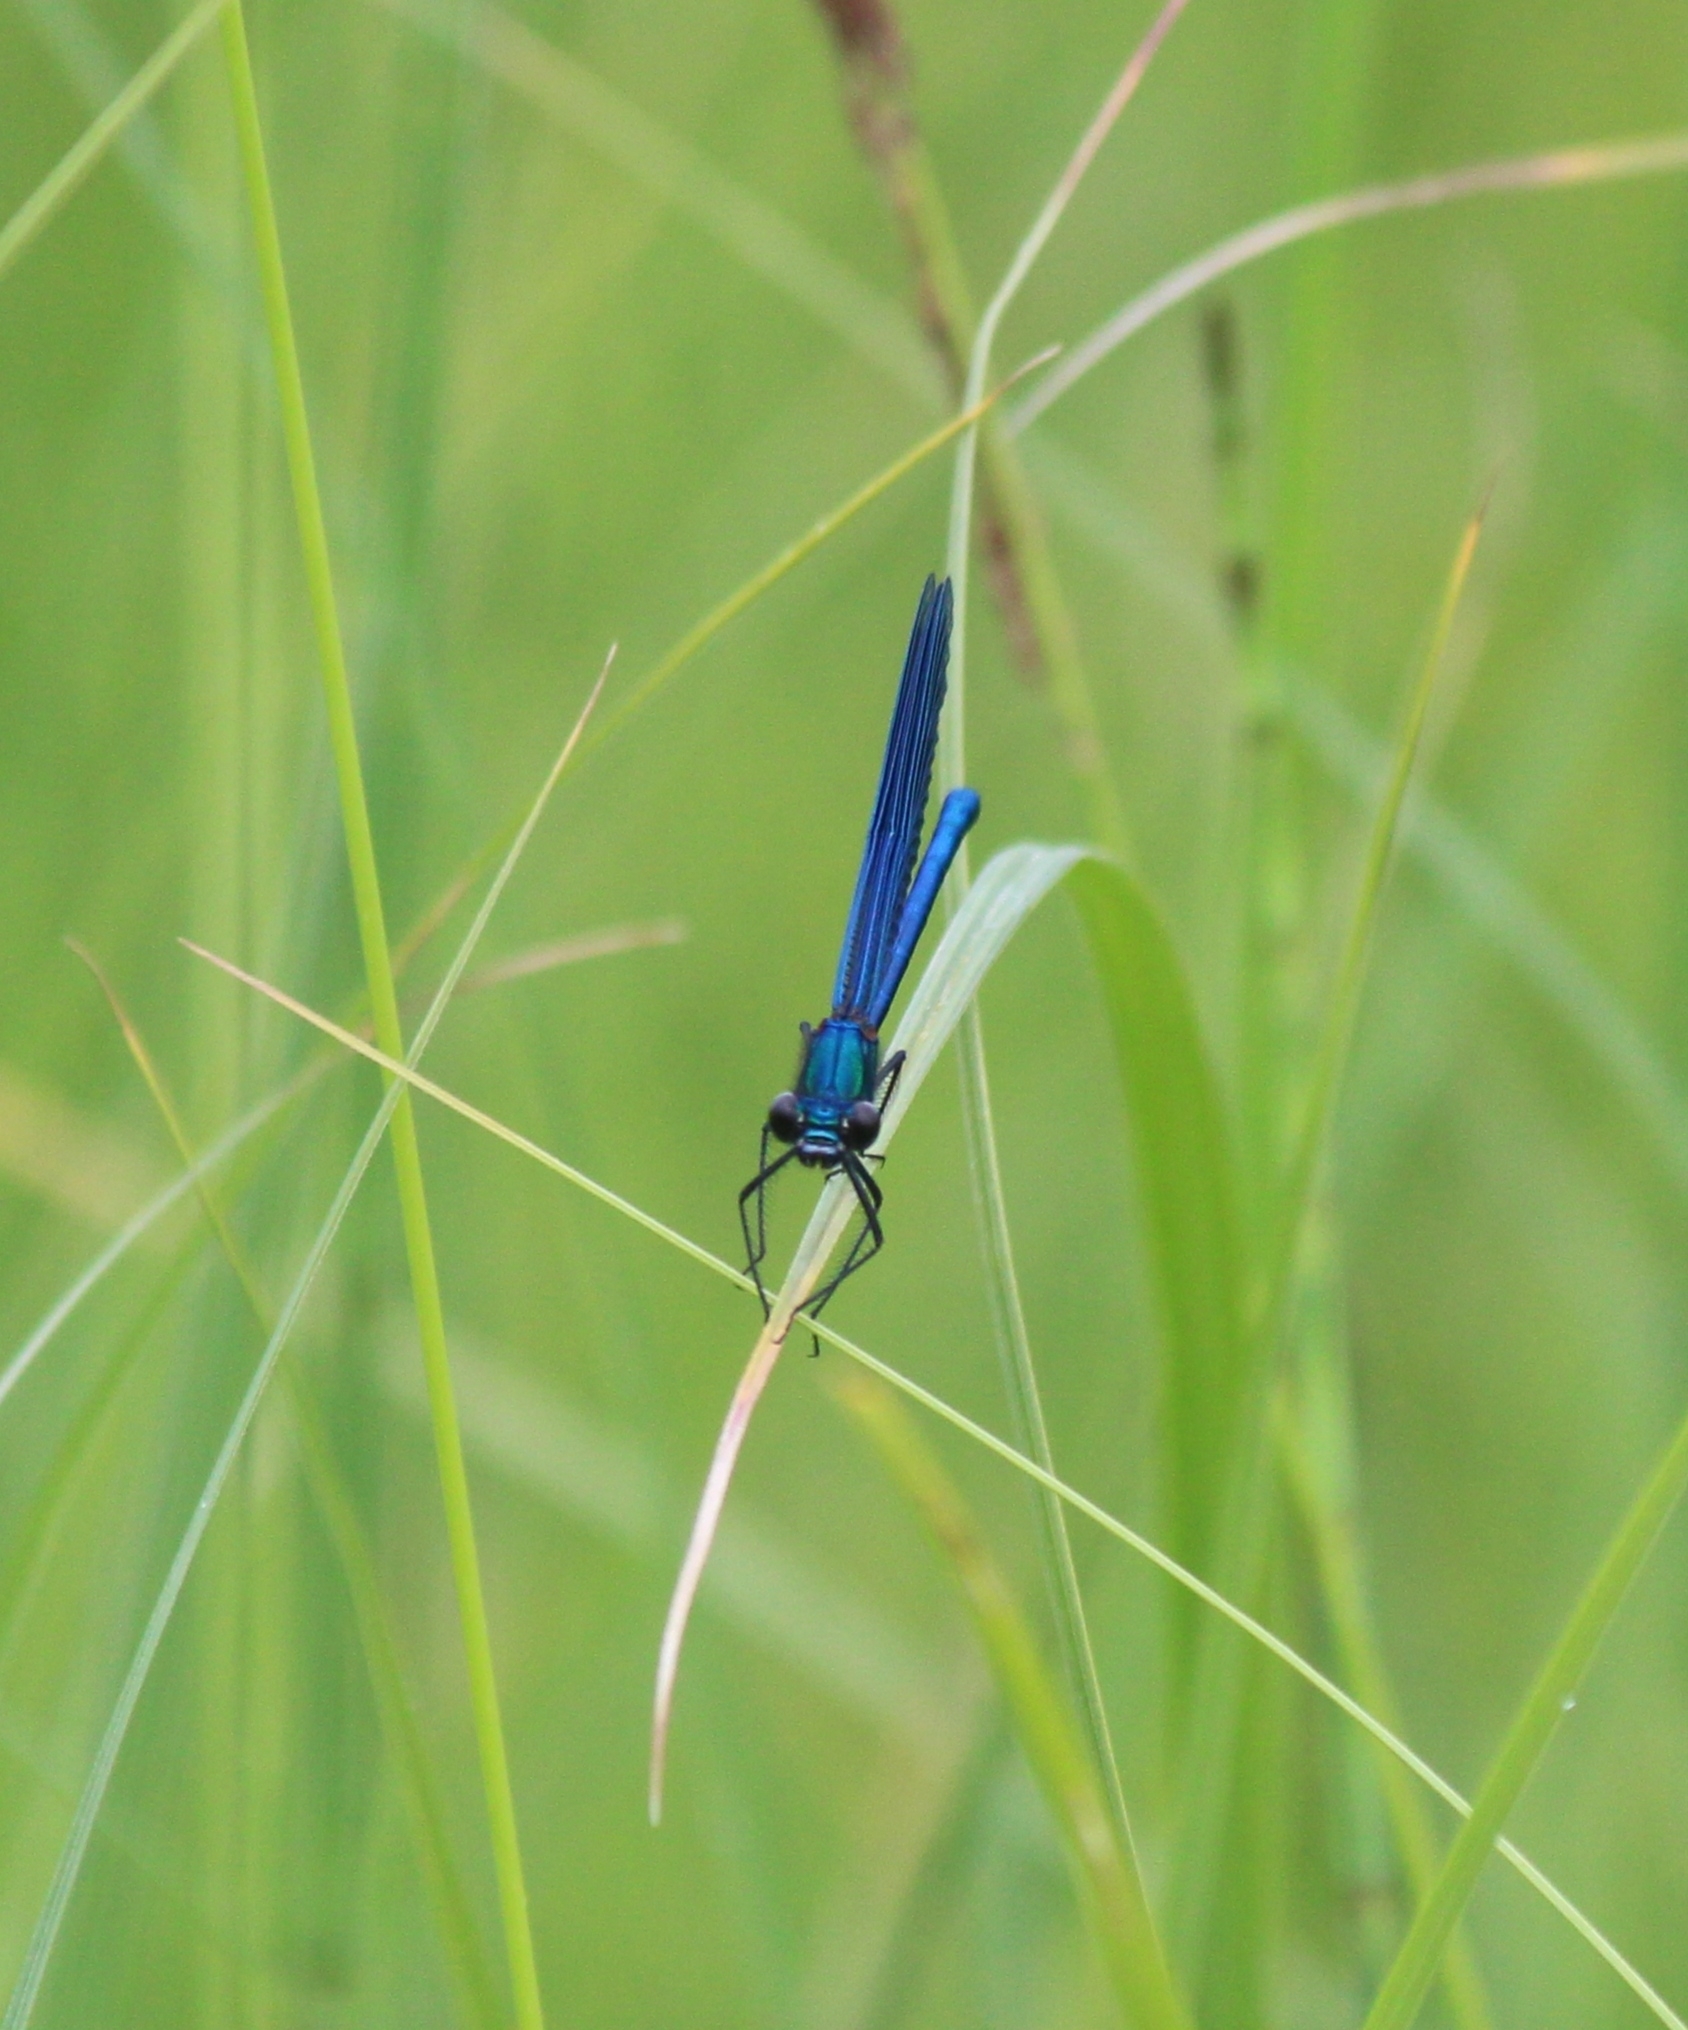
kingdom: Animalia
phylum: Arthropoda
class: Insecta
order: Odonata
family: Calopterygidae
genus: Calopteryx
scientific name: Calopteryx splendens
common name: Banded demoiselle
